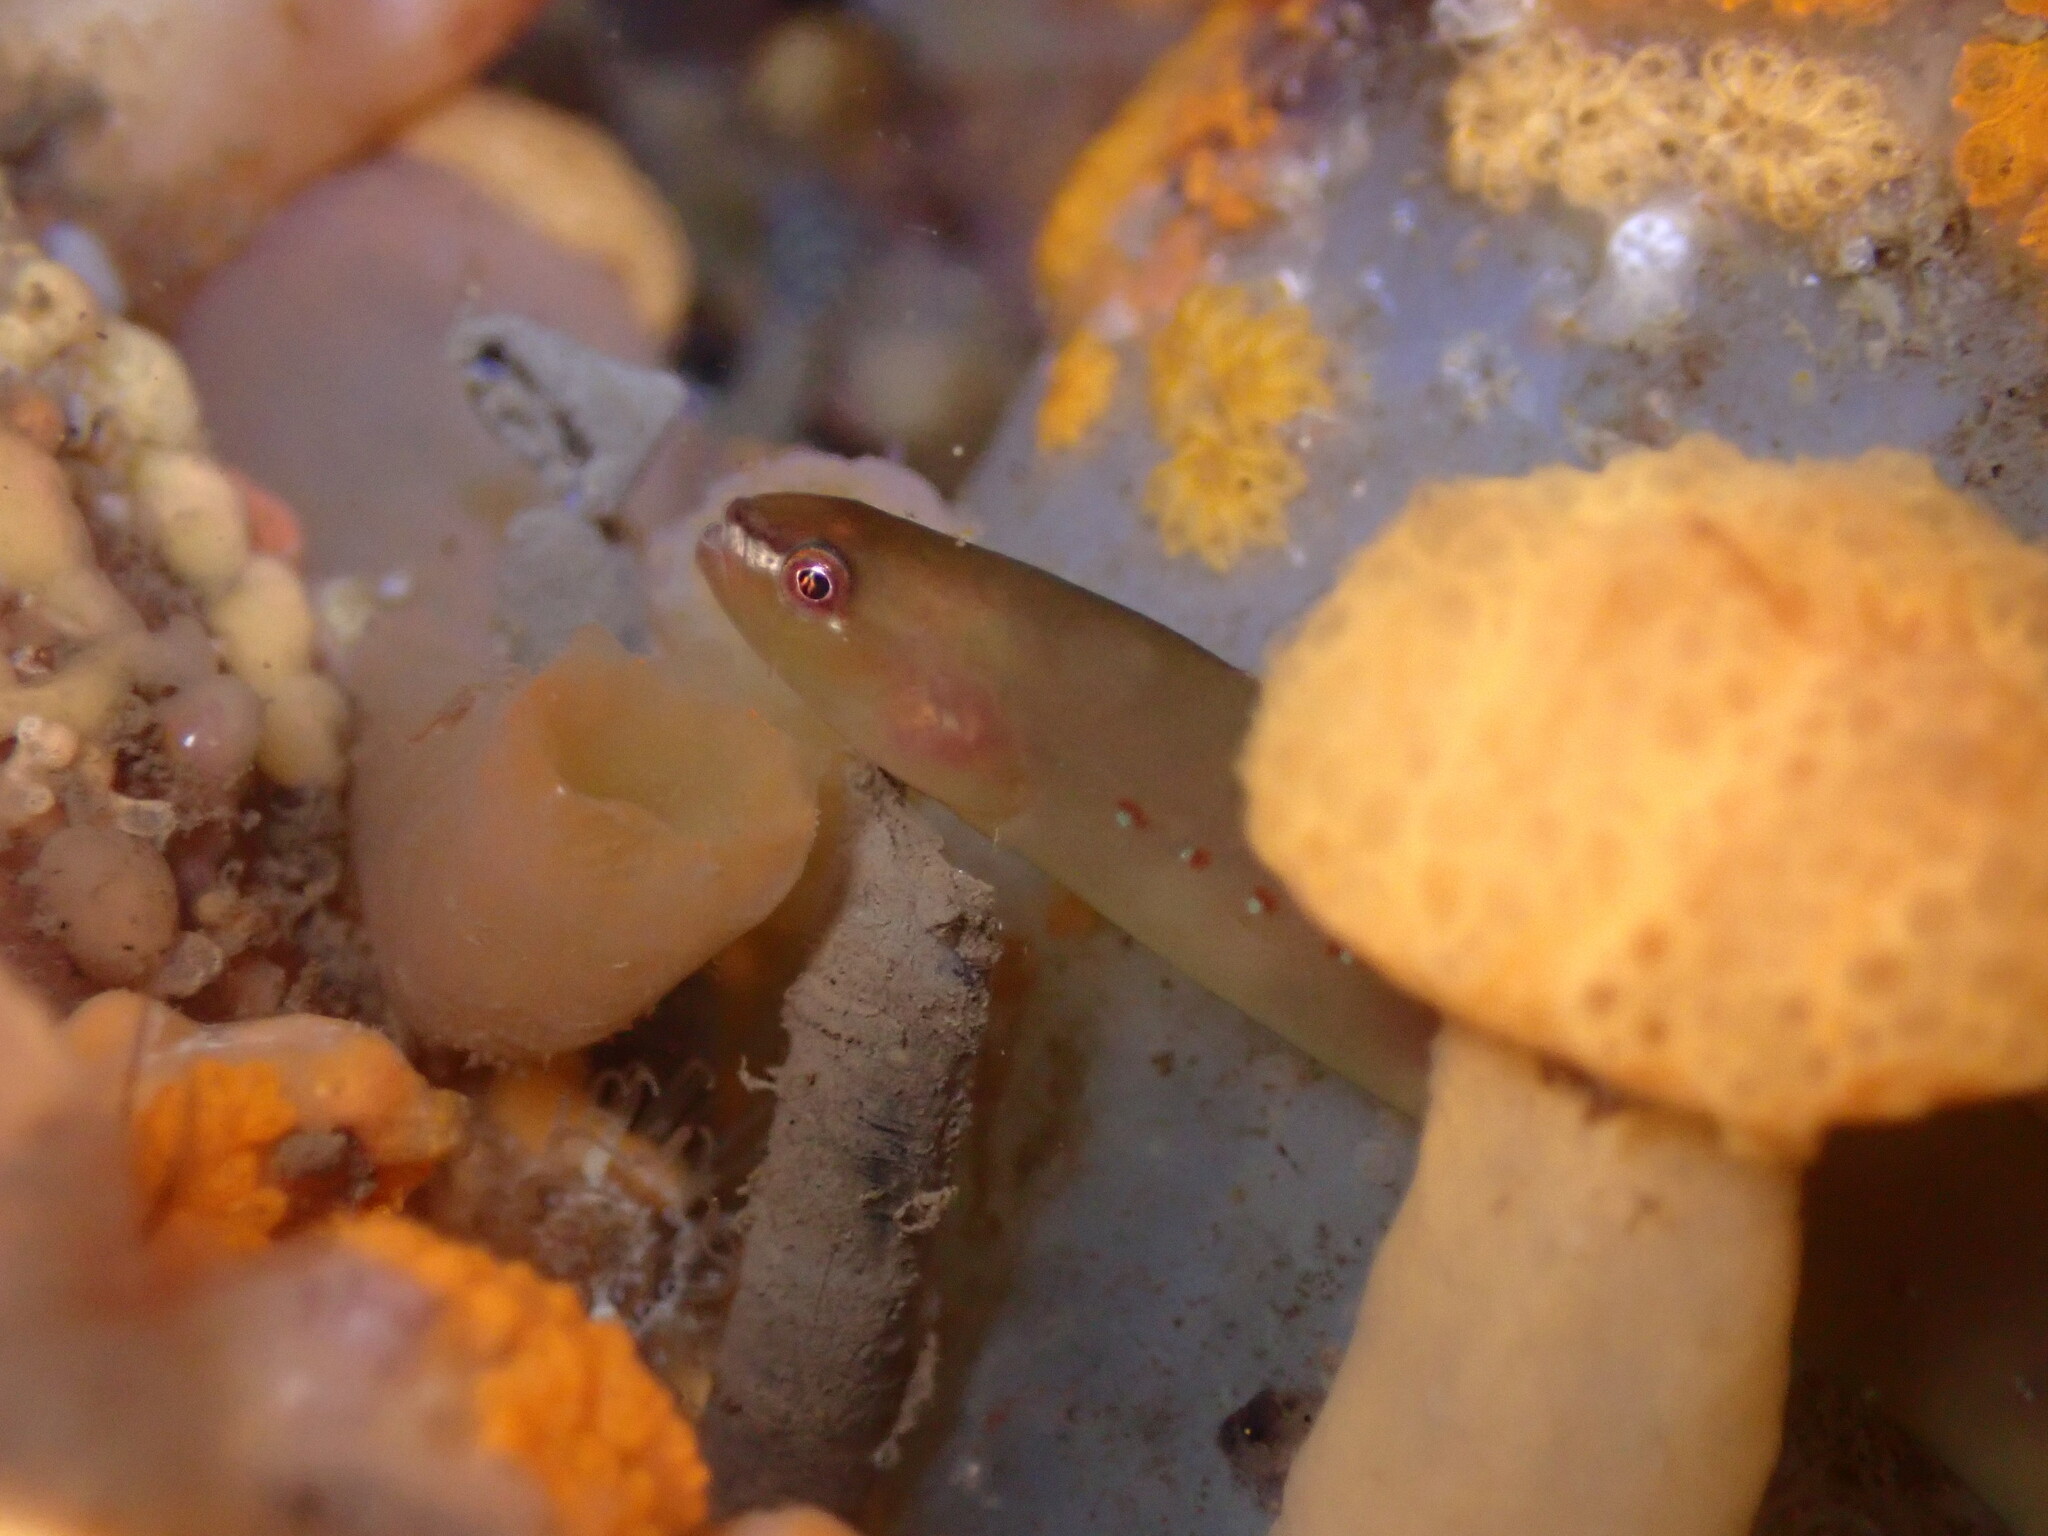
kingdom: Animalia
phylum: Chordata
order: Perciformes
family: Pholidae
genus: Apodichthys
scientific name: Apodichthys flavidus
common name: Penpoint gunnel
